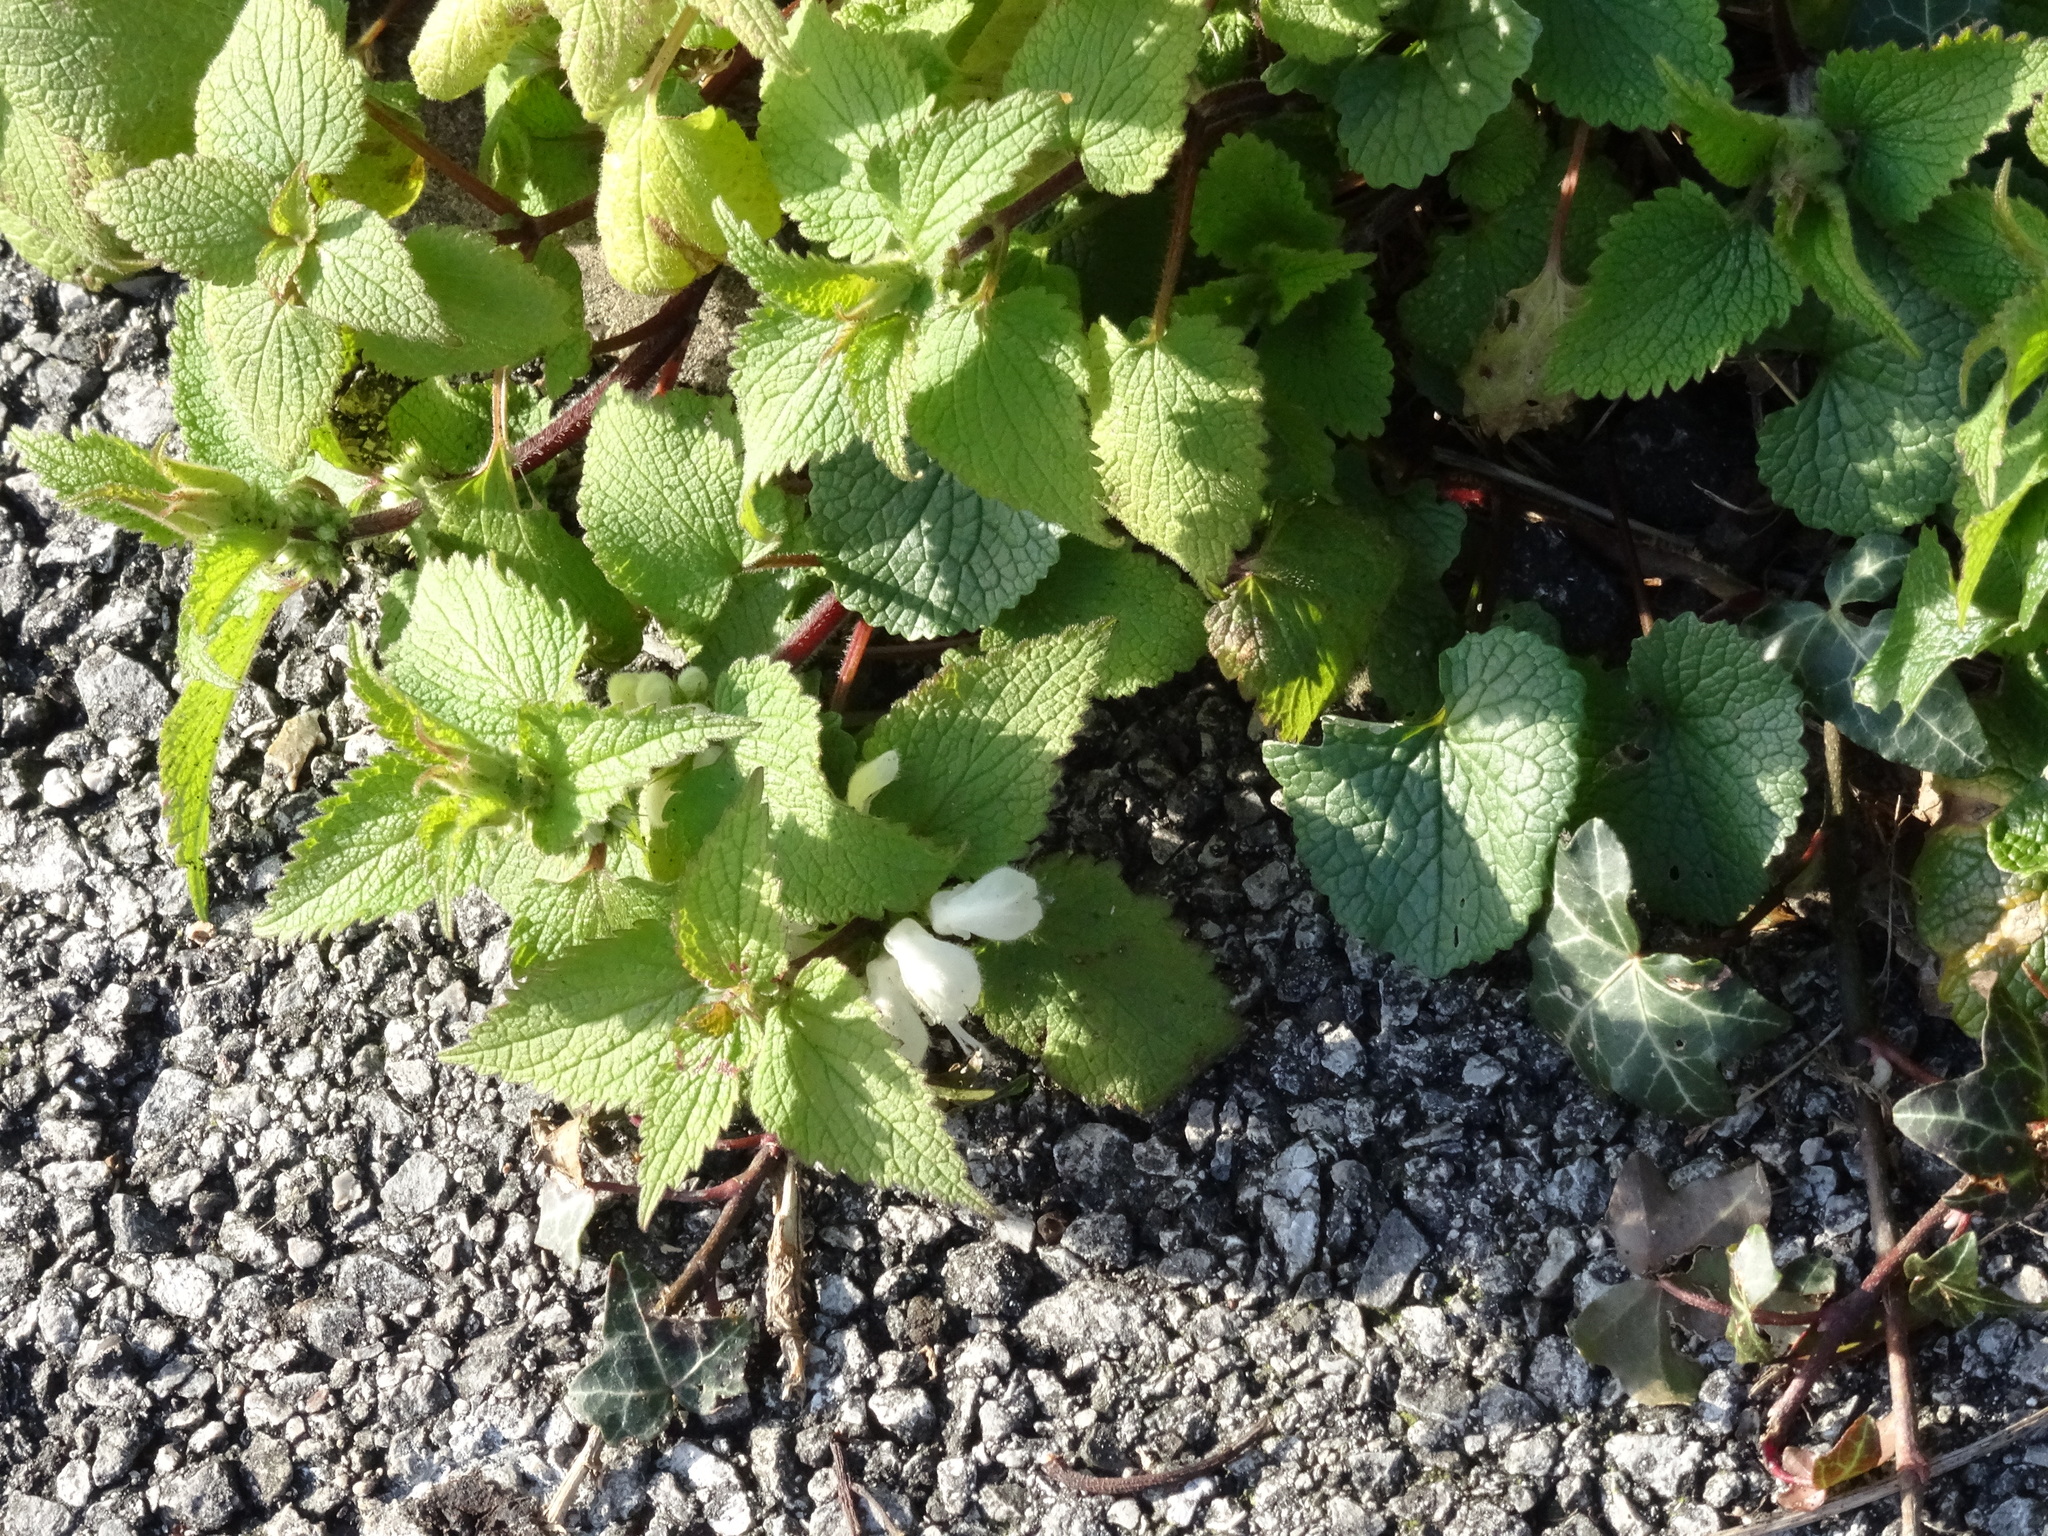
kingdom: Plantae
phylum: Tracheophyta
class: Magnoliopsida
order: Lamiales
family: Lamiaceae
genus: Lamium
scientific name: Lamium album
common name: White dead-nettle
